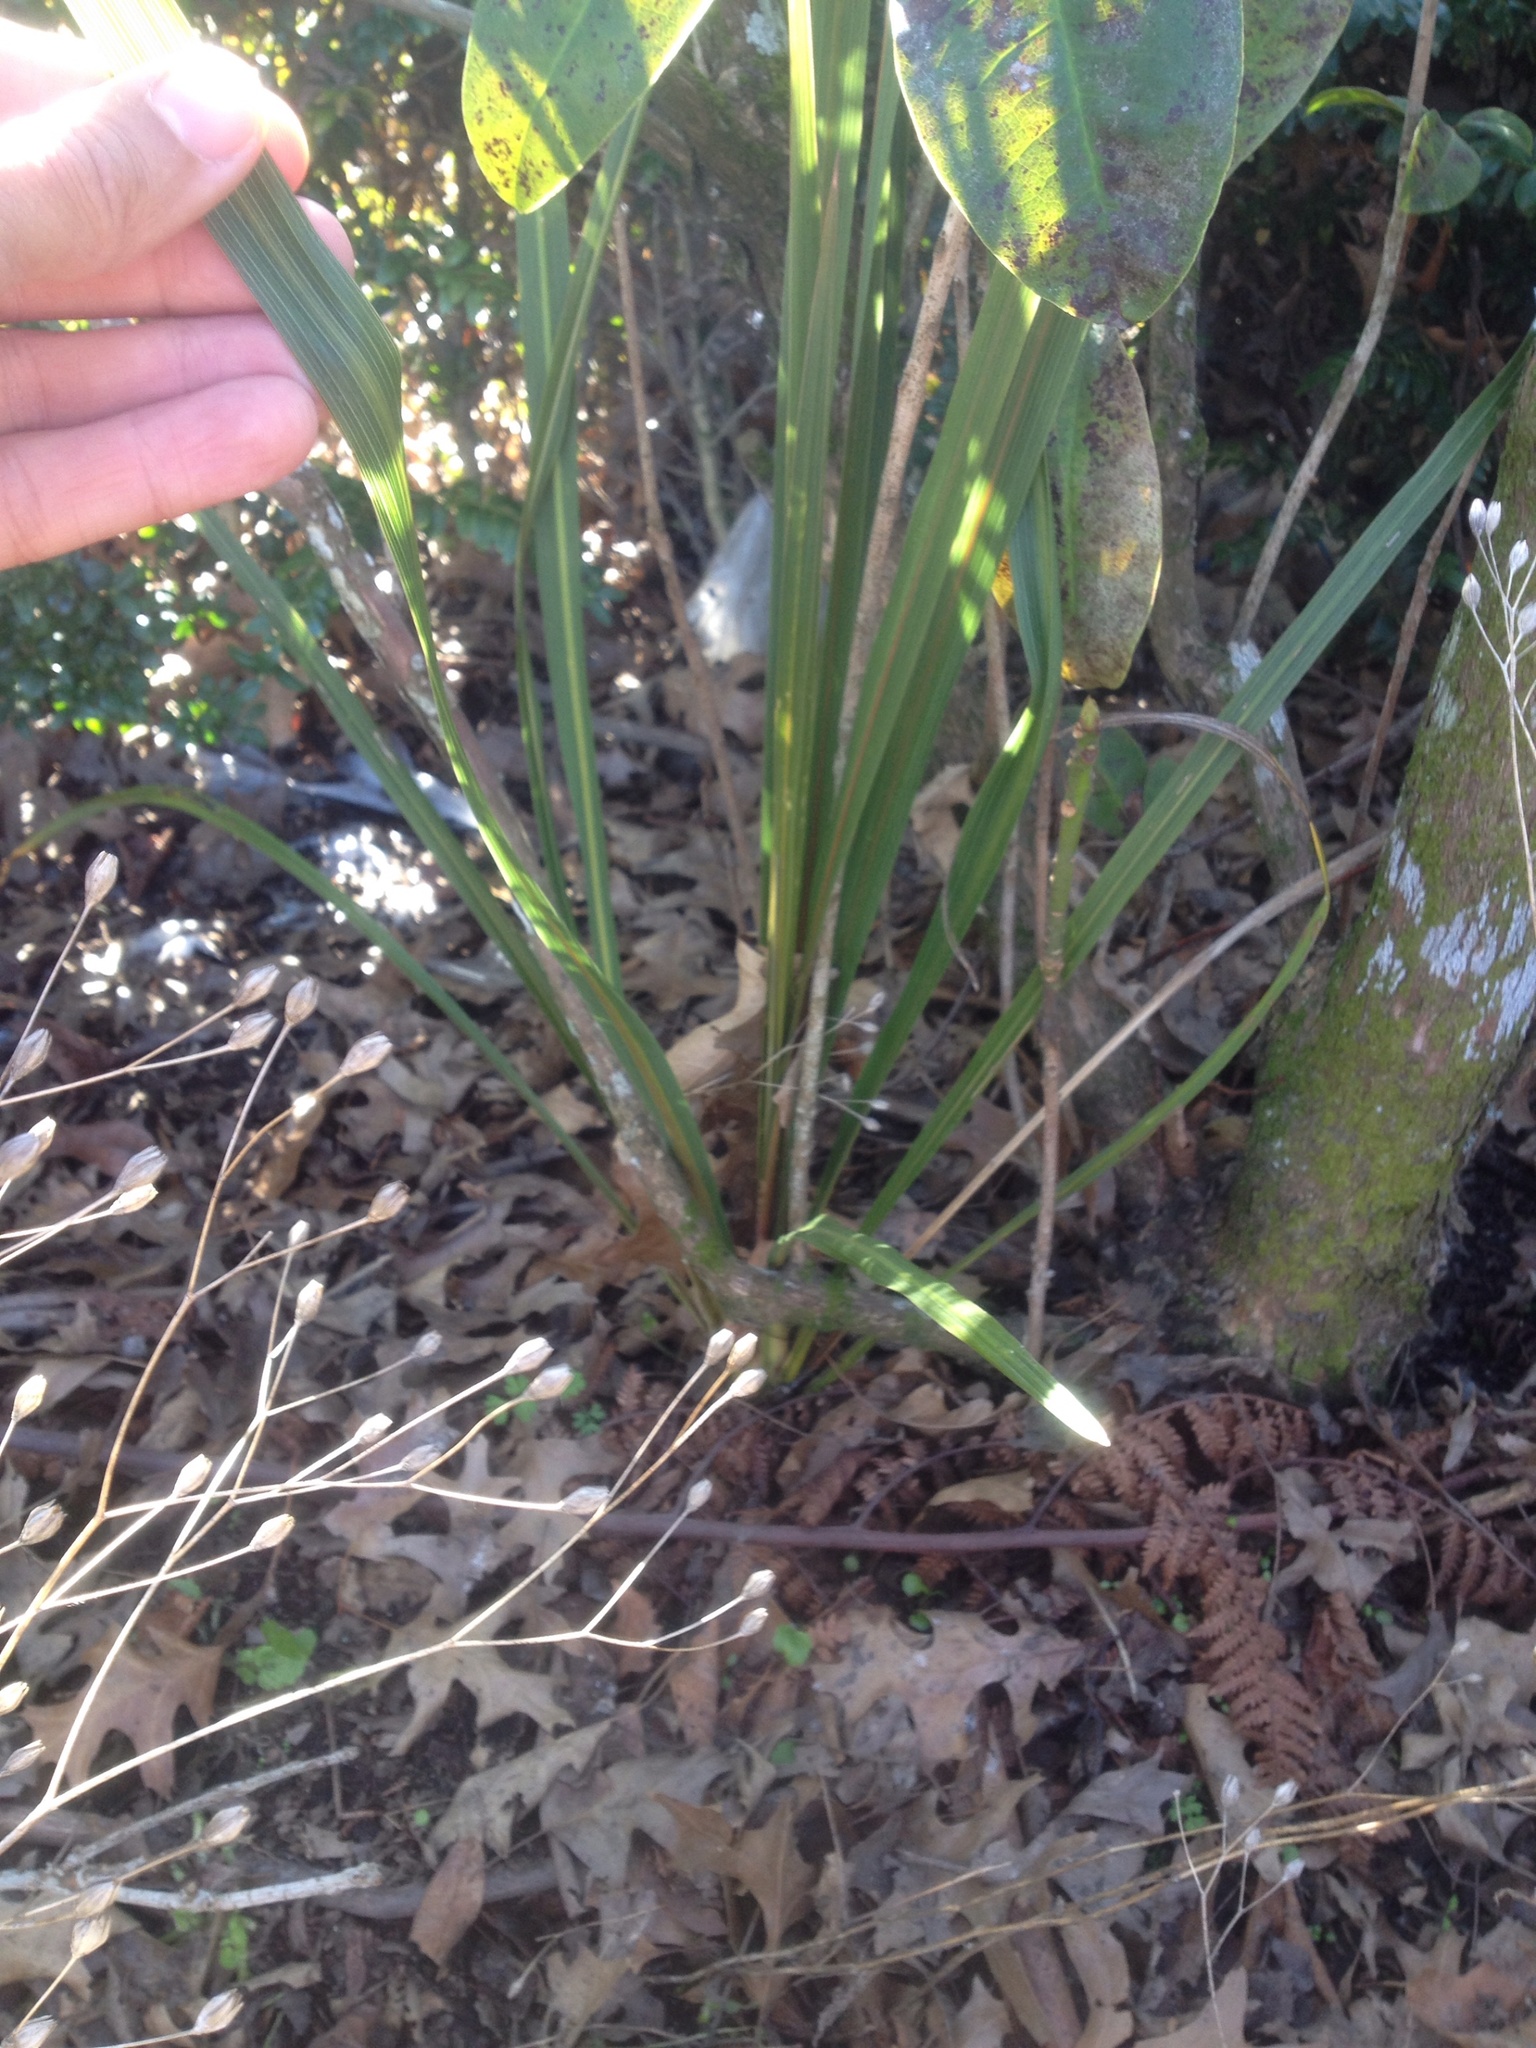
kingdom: Plantae
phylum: Tracheophyta
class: Liliopsida
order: Asparagales
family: Asparagaceae
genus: Cordyline
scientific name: Cordyline australis
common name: Cabbage-palm
